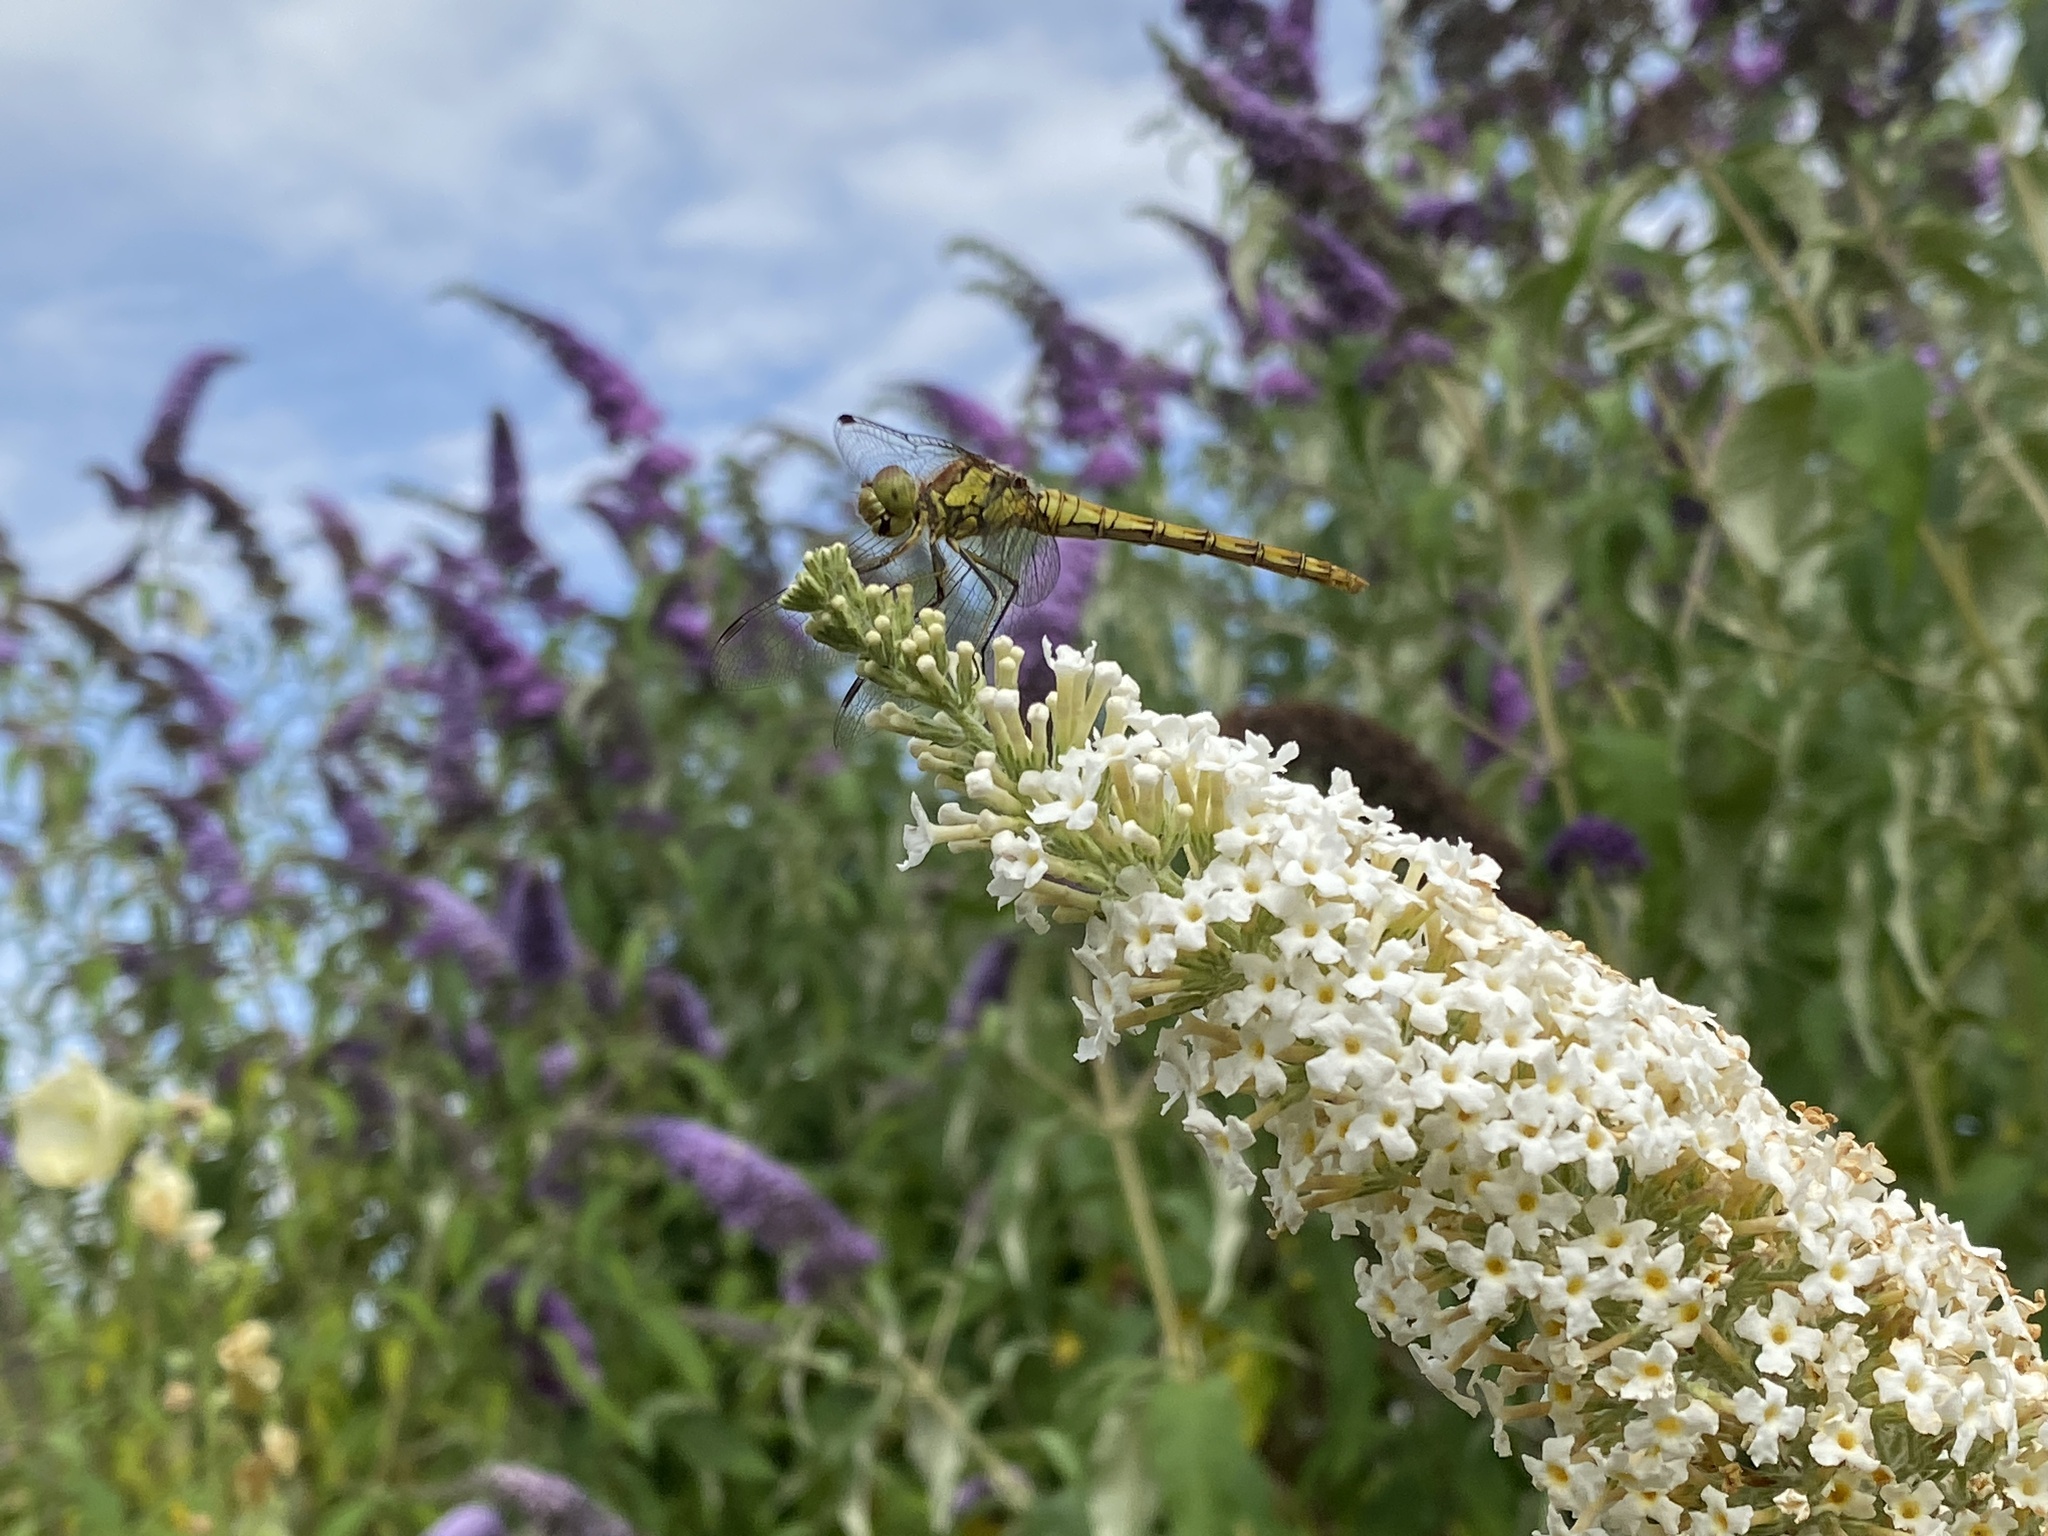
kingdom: Animalia
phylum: Arthropoda
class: Insecta
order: Odonata
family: Libellulidae
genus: Sympetrum
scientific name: Sympetrum striolatum
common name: Common darter
